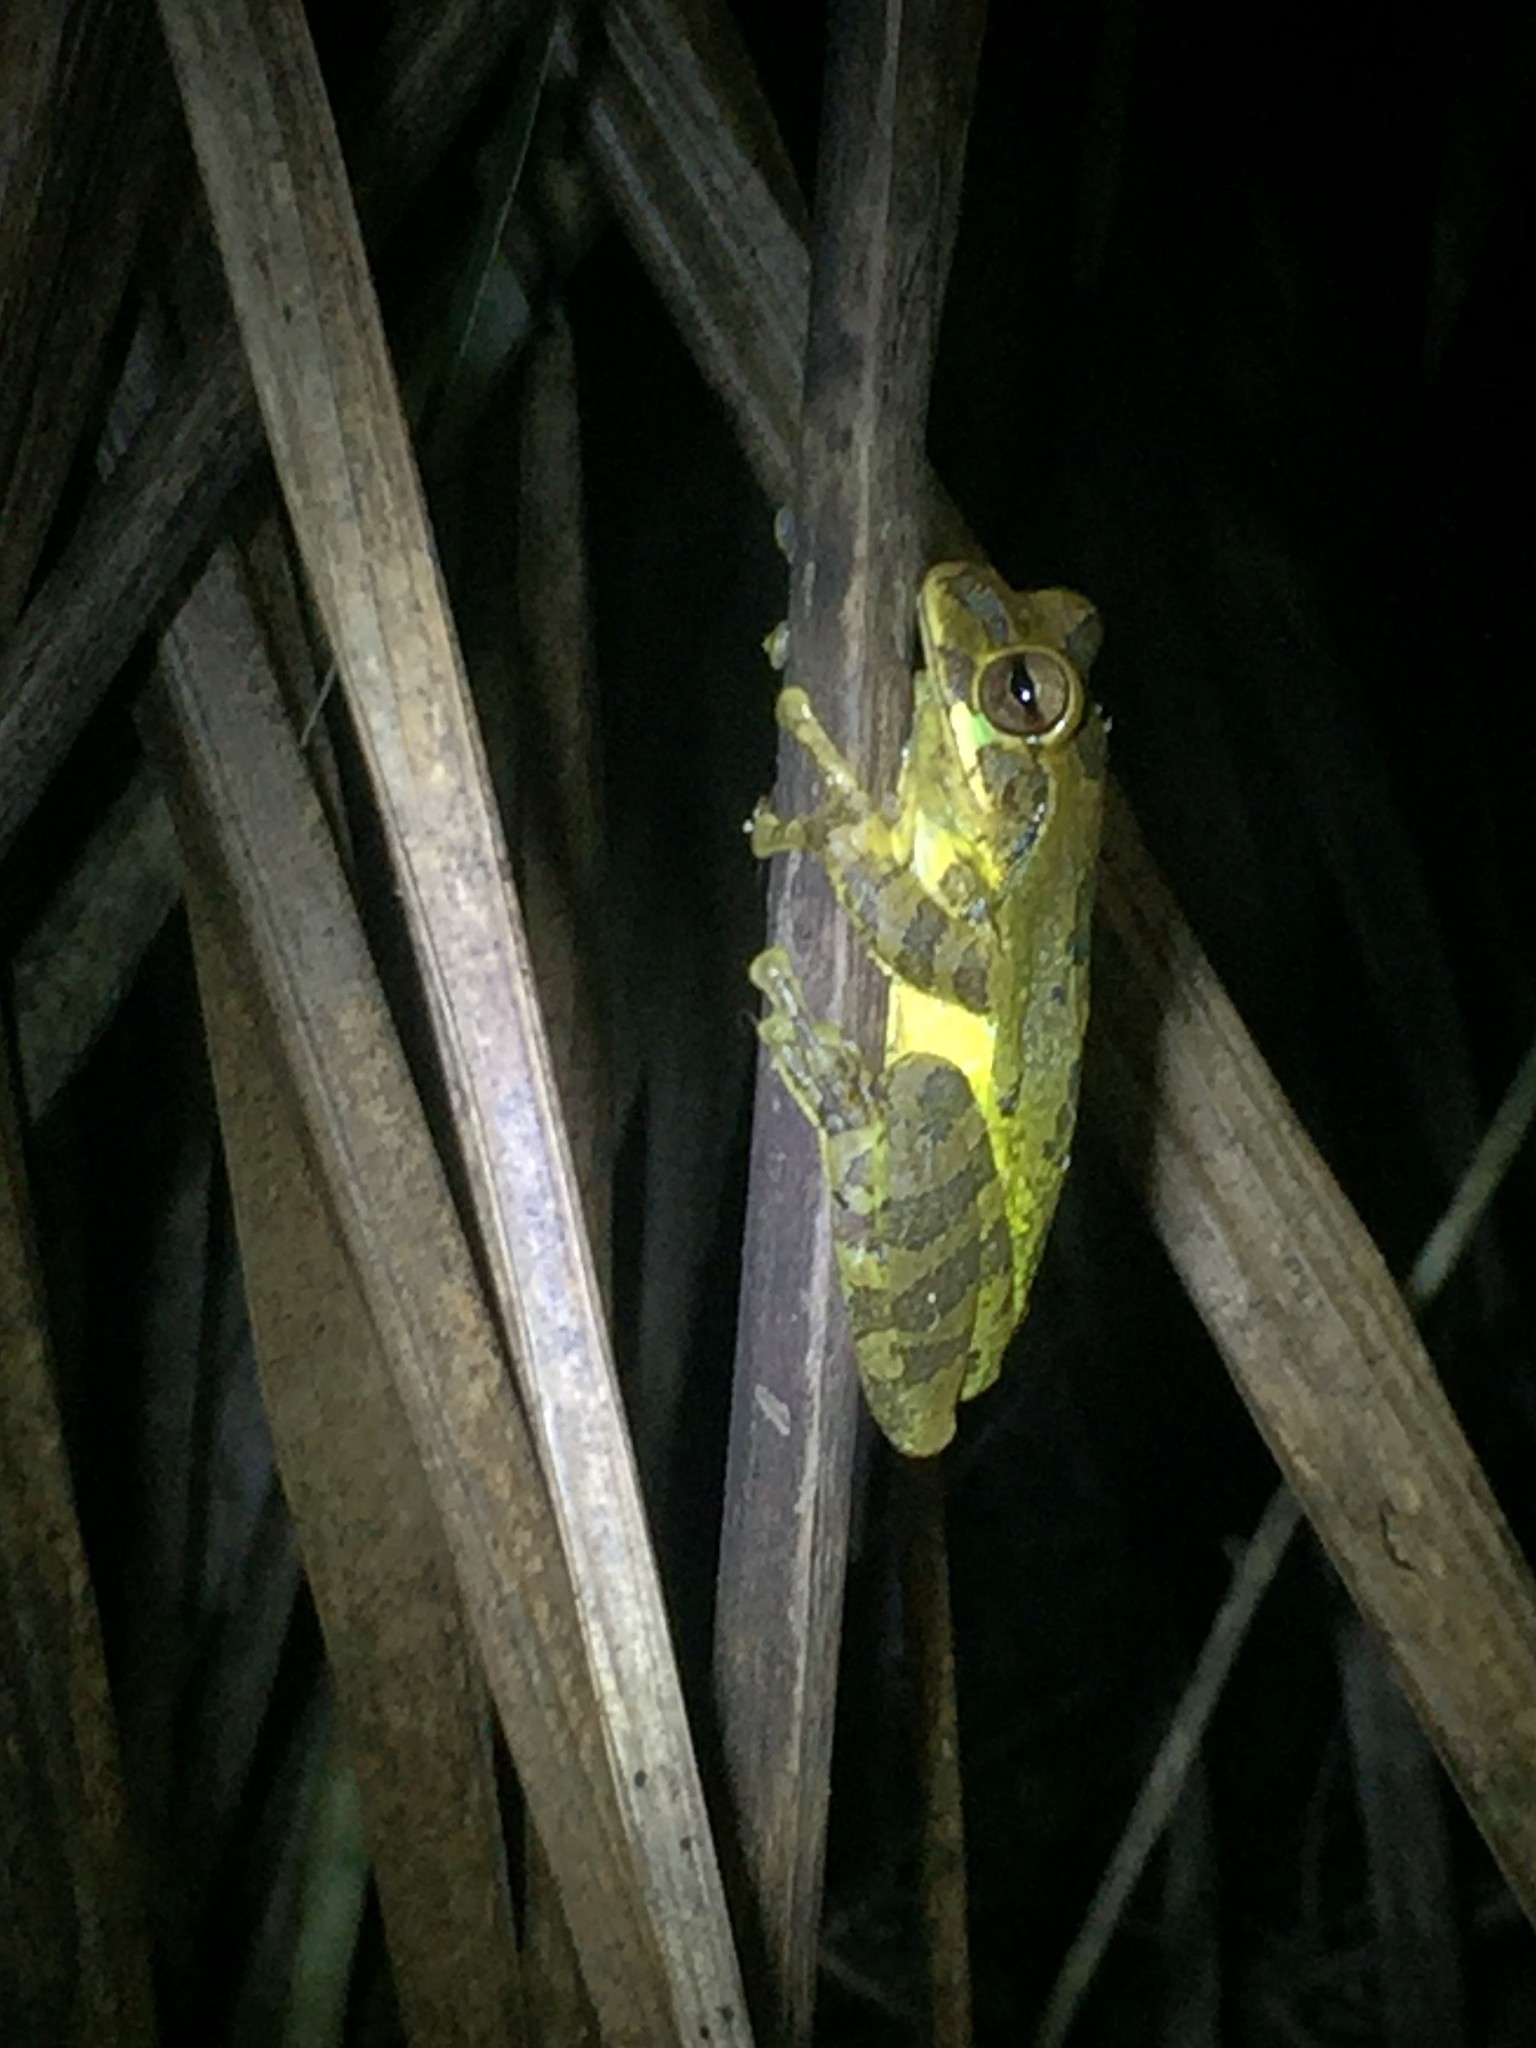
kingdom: Animalia
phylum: Chordata
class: Amphibia
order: Anura
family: Hylidae
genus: Smilisca
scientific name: Smilisca baudinii
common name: Mexican smilisca
